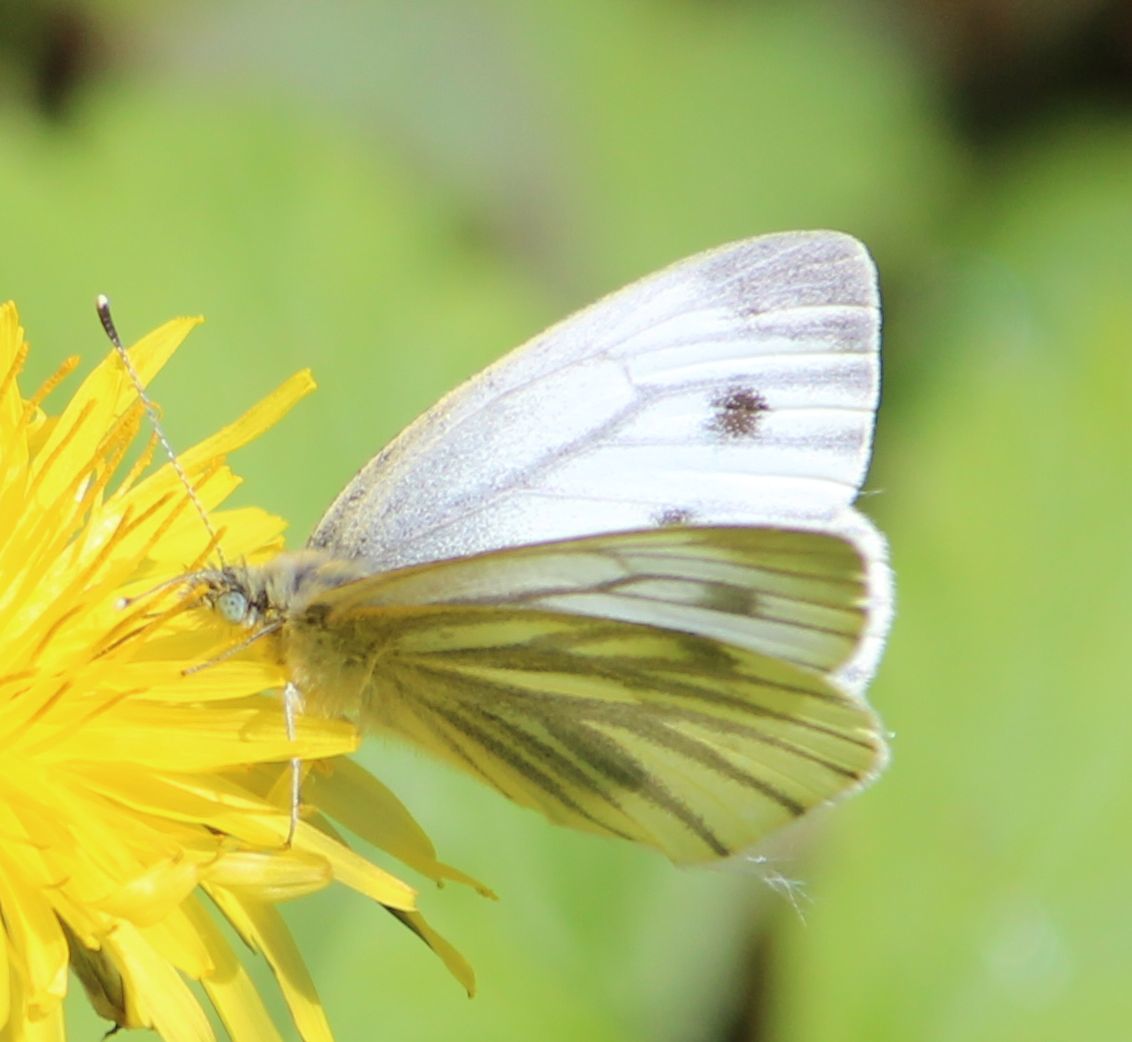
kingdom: Animalia
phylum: Arthropoda
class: Insecta
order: Lepidoptera
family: Pieridae
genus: Pieris
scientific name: Pieris napi
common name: Green-veined white
